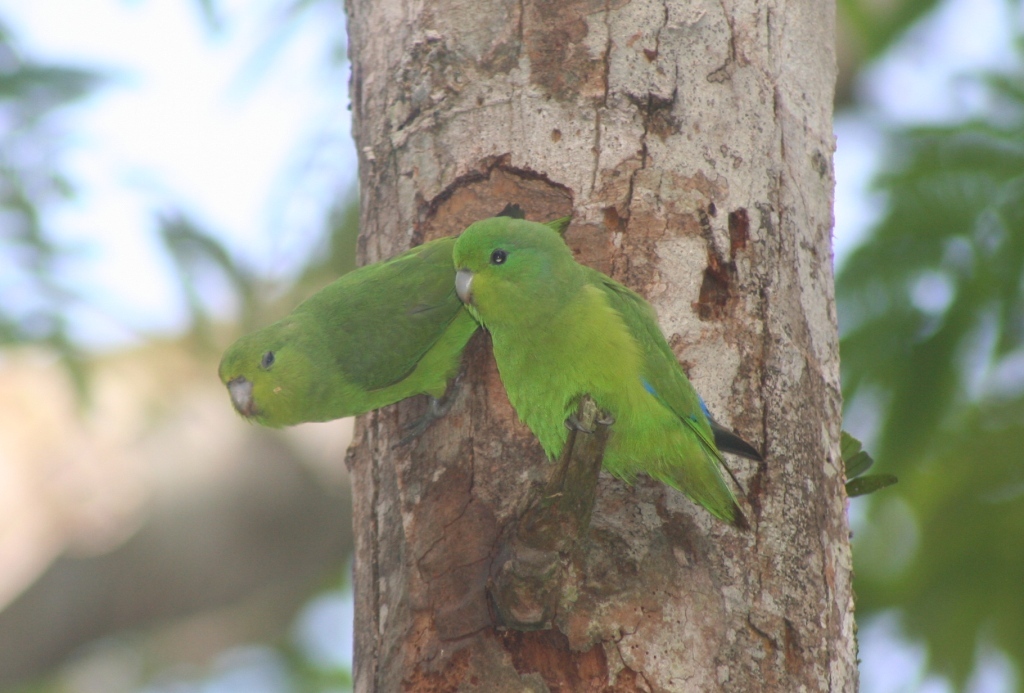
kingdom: Animalia
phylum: Chordata
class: Aves
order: Psittaciformes
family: Psittacidae
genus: Forpus
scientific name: Forpus xanthopterygius
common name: Blue-winged parrotlet
